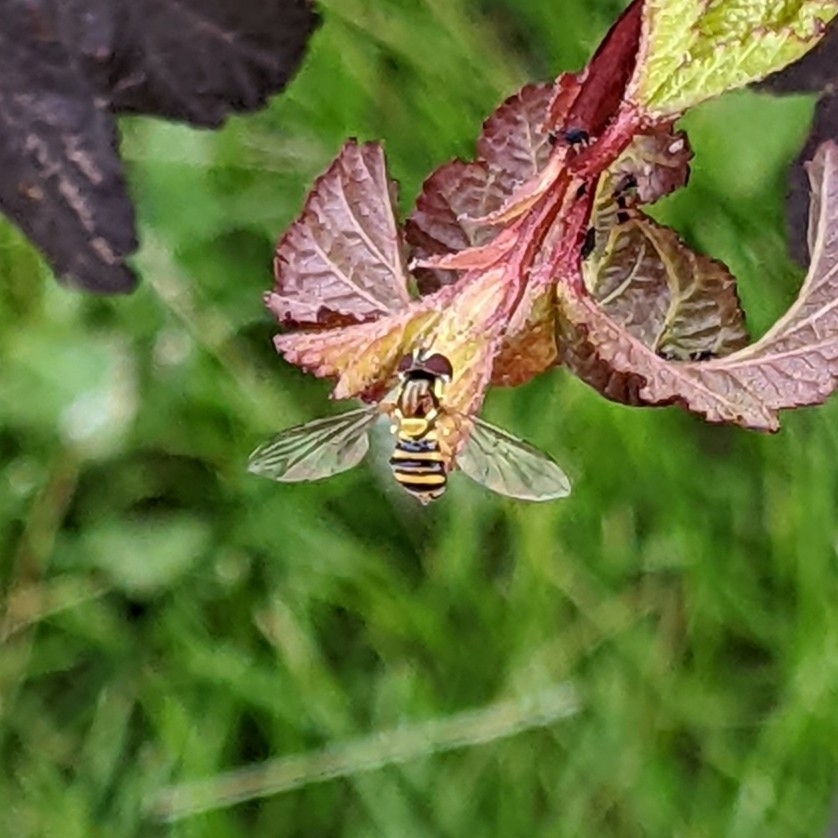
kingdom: Animalia
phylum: Arthropoda
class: Insecta
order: Diptera
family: Syrphidae
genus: Allograpta
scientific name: Allograpta obliqua
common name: Common oblique syrphid
